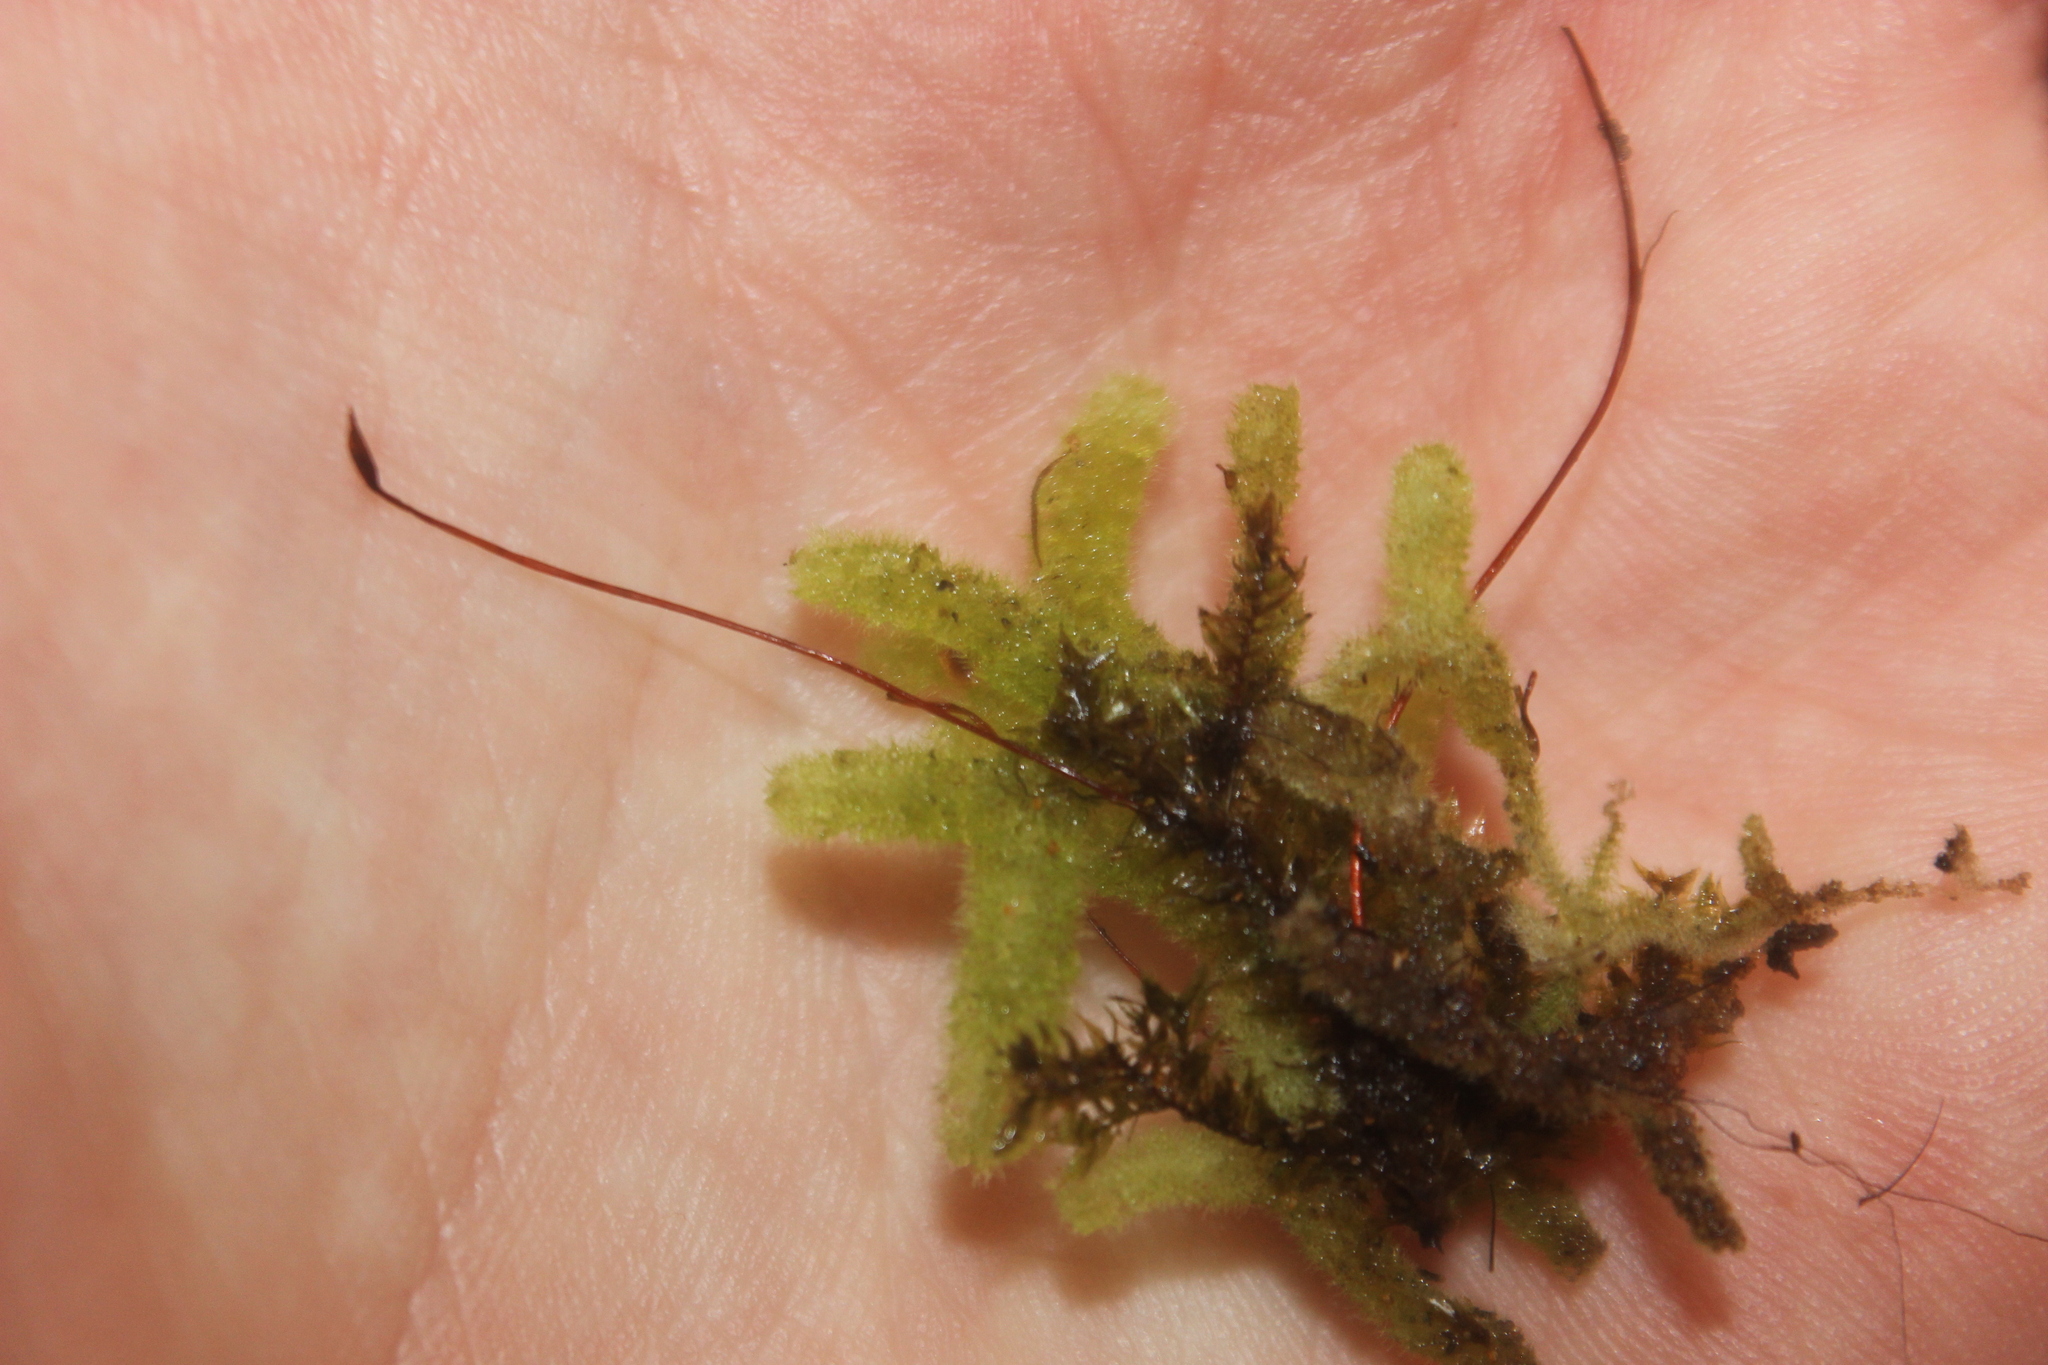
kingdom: Plantae
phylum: Marchantiophyta
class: Jungermanniopsida
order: Jungermanniales
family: Trichocoleaceae
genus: Leiomitra
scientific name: Leiomitra lanata
